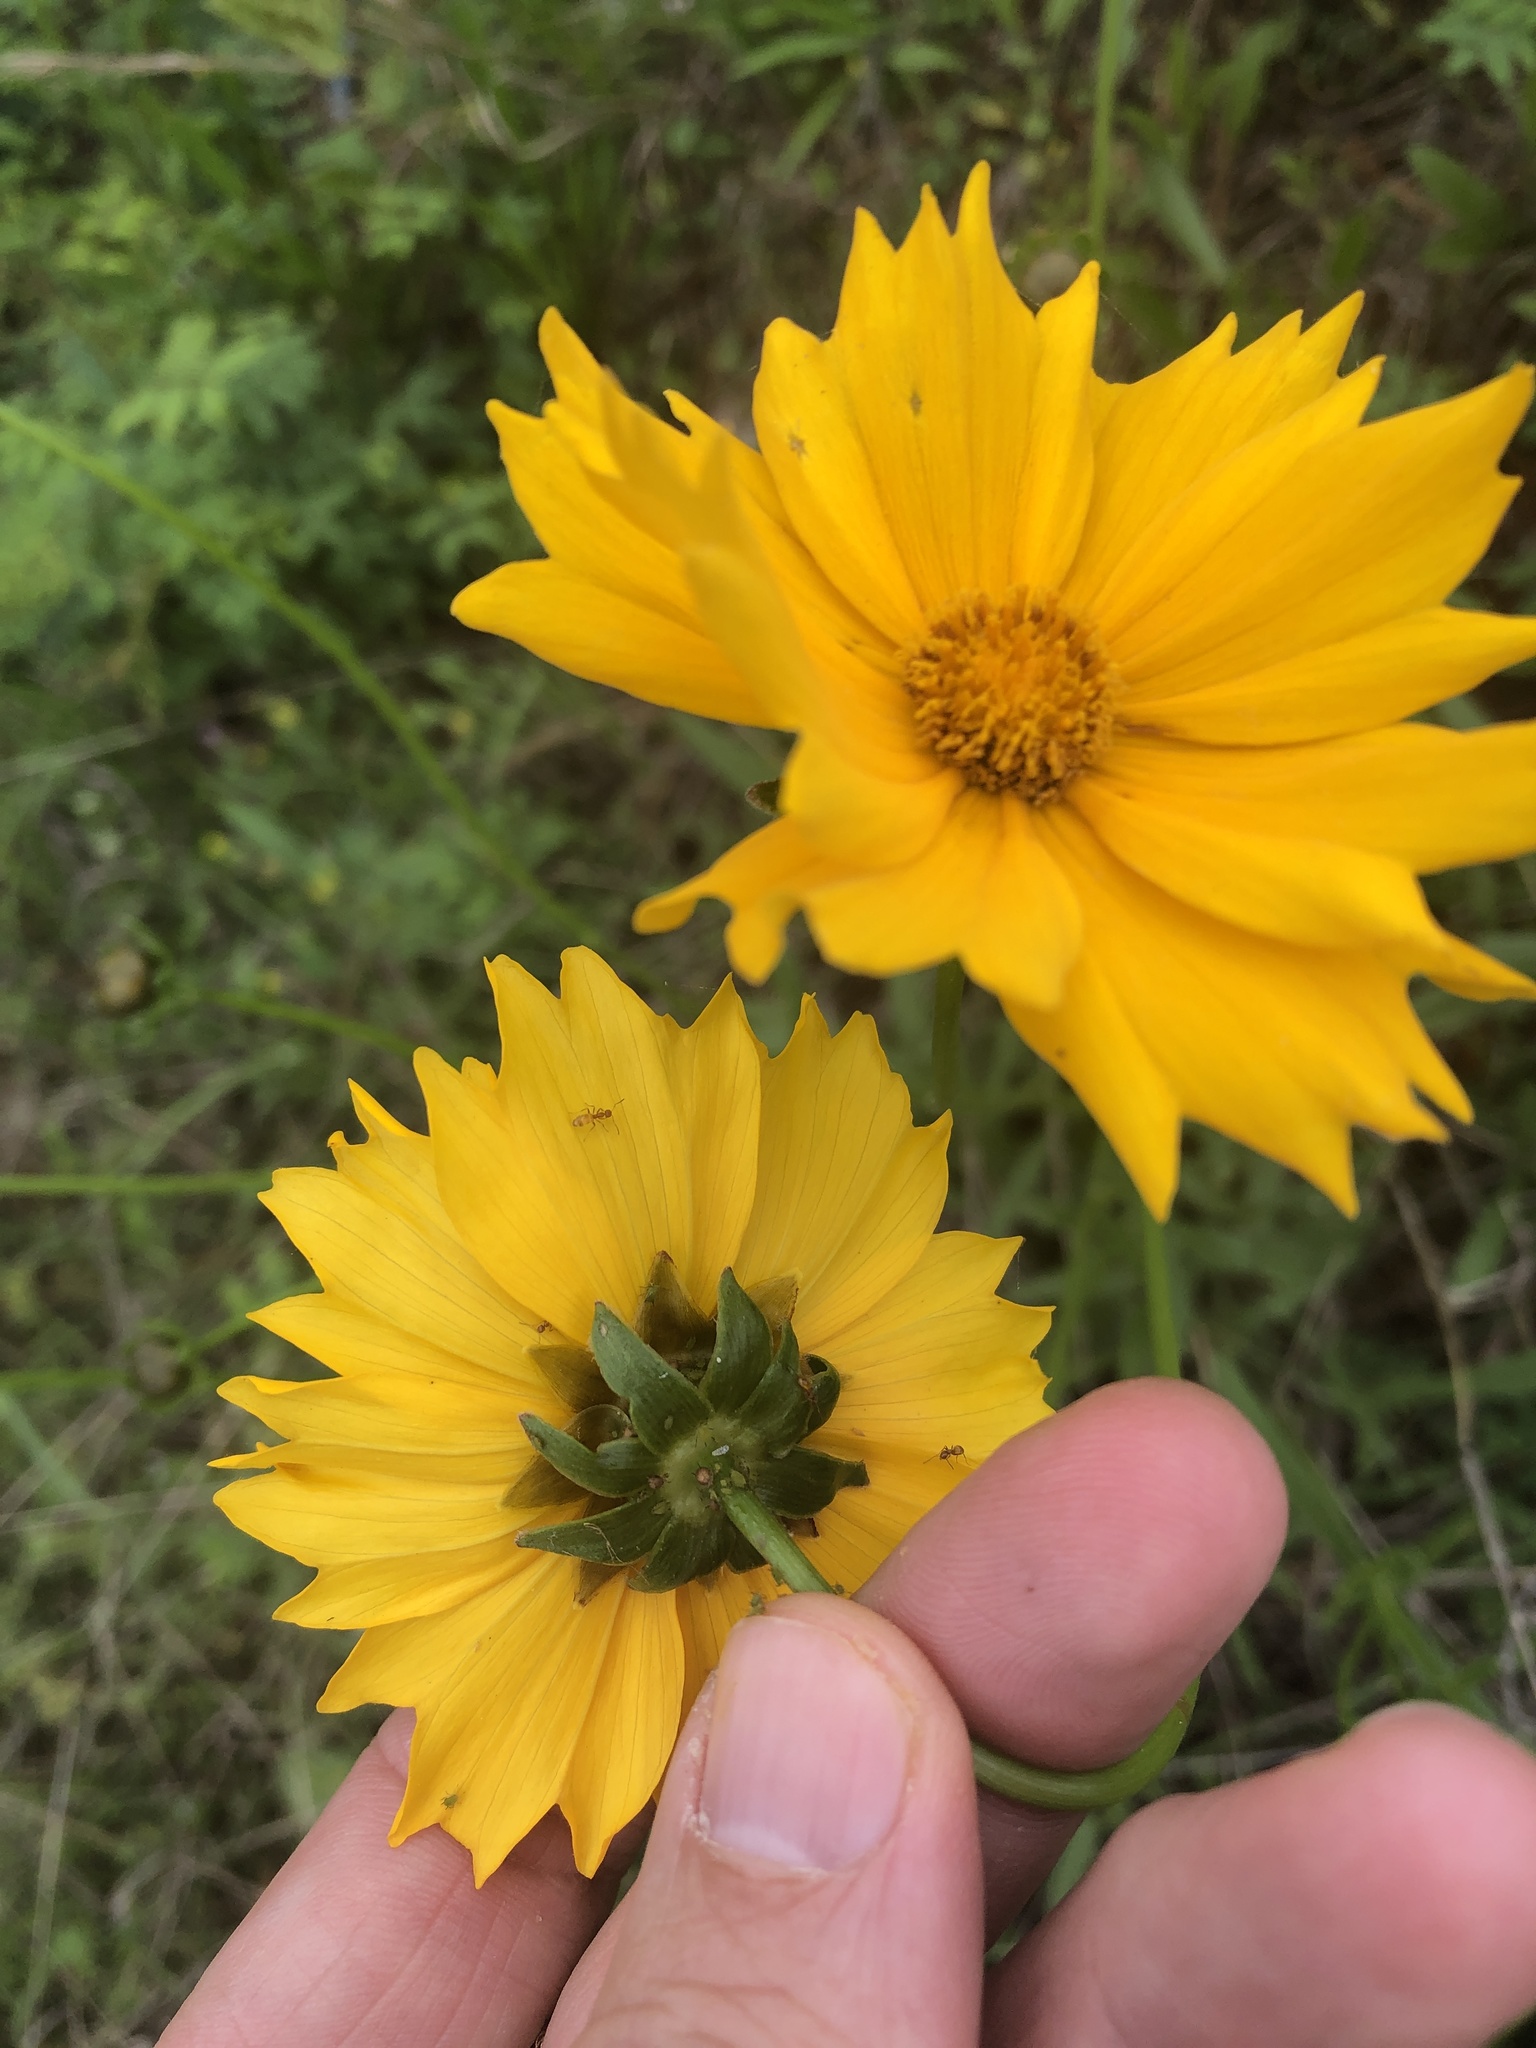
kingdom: Plantae
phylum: Tracheophyta
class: Magnoliopsida
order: Asterales
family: Asteraceae
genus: Coreopsis
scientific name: Coreopsis lanceolata
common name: Garden coreopsis
